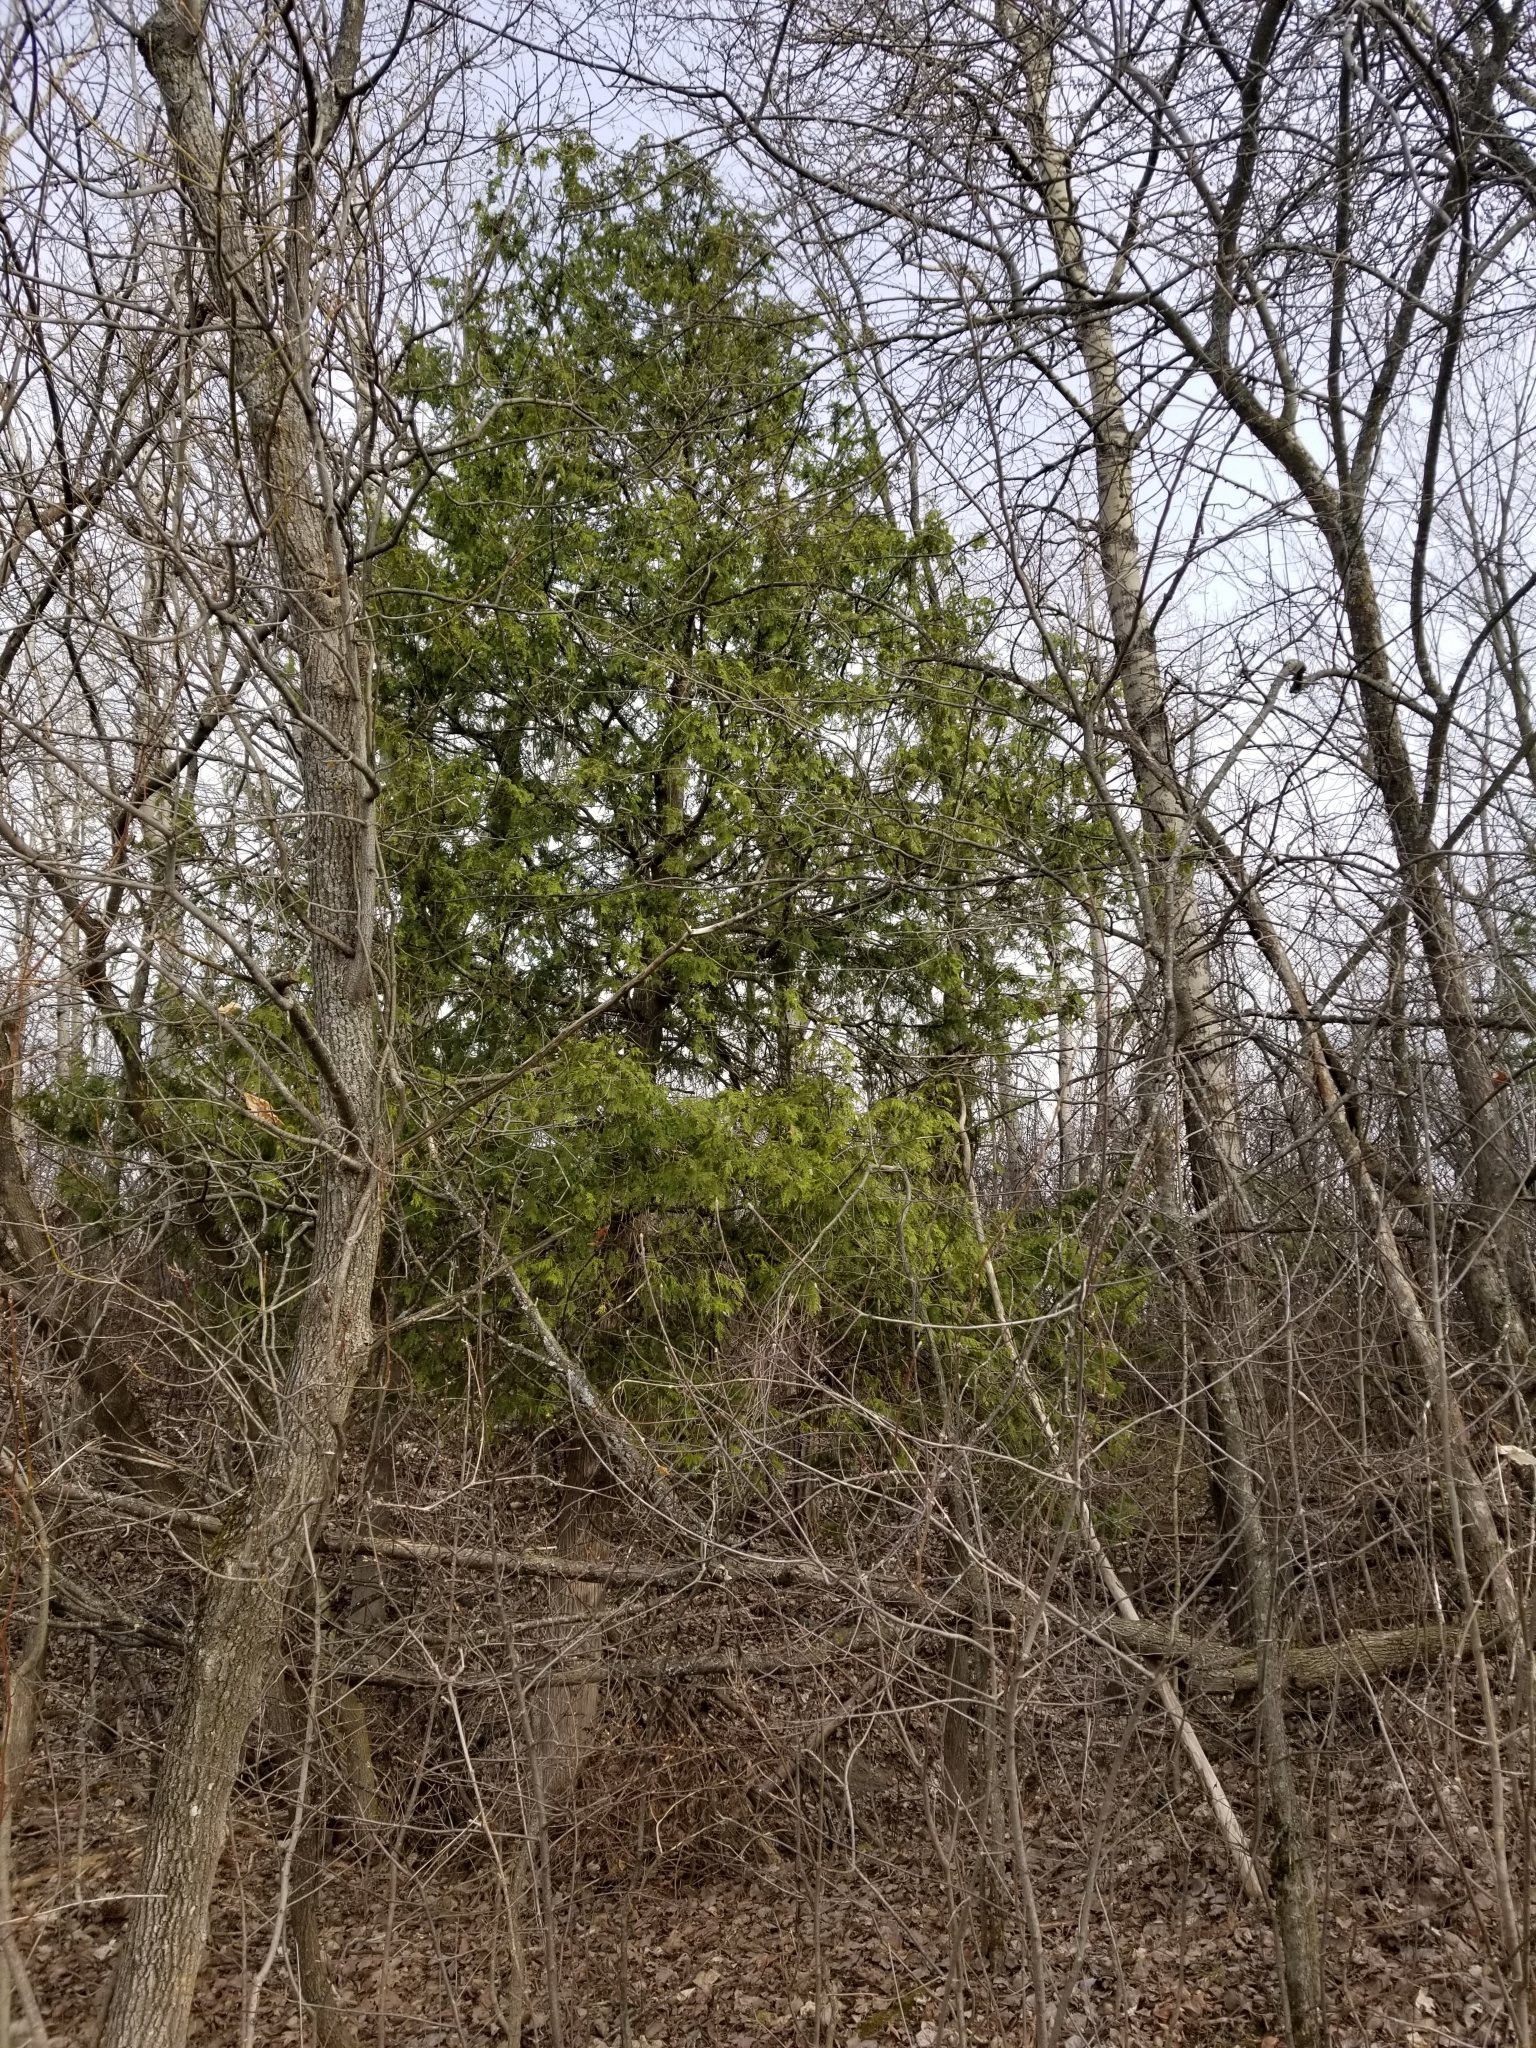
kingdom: Plantae
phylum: Tracheophyta
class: Pinopsida
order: Pinales
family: Cupressaceae
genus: Thuja
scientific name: Thuja occidentalis
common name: Northern white-cedar
